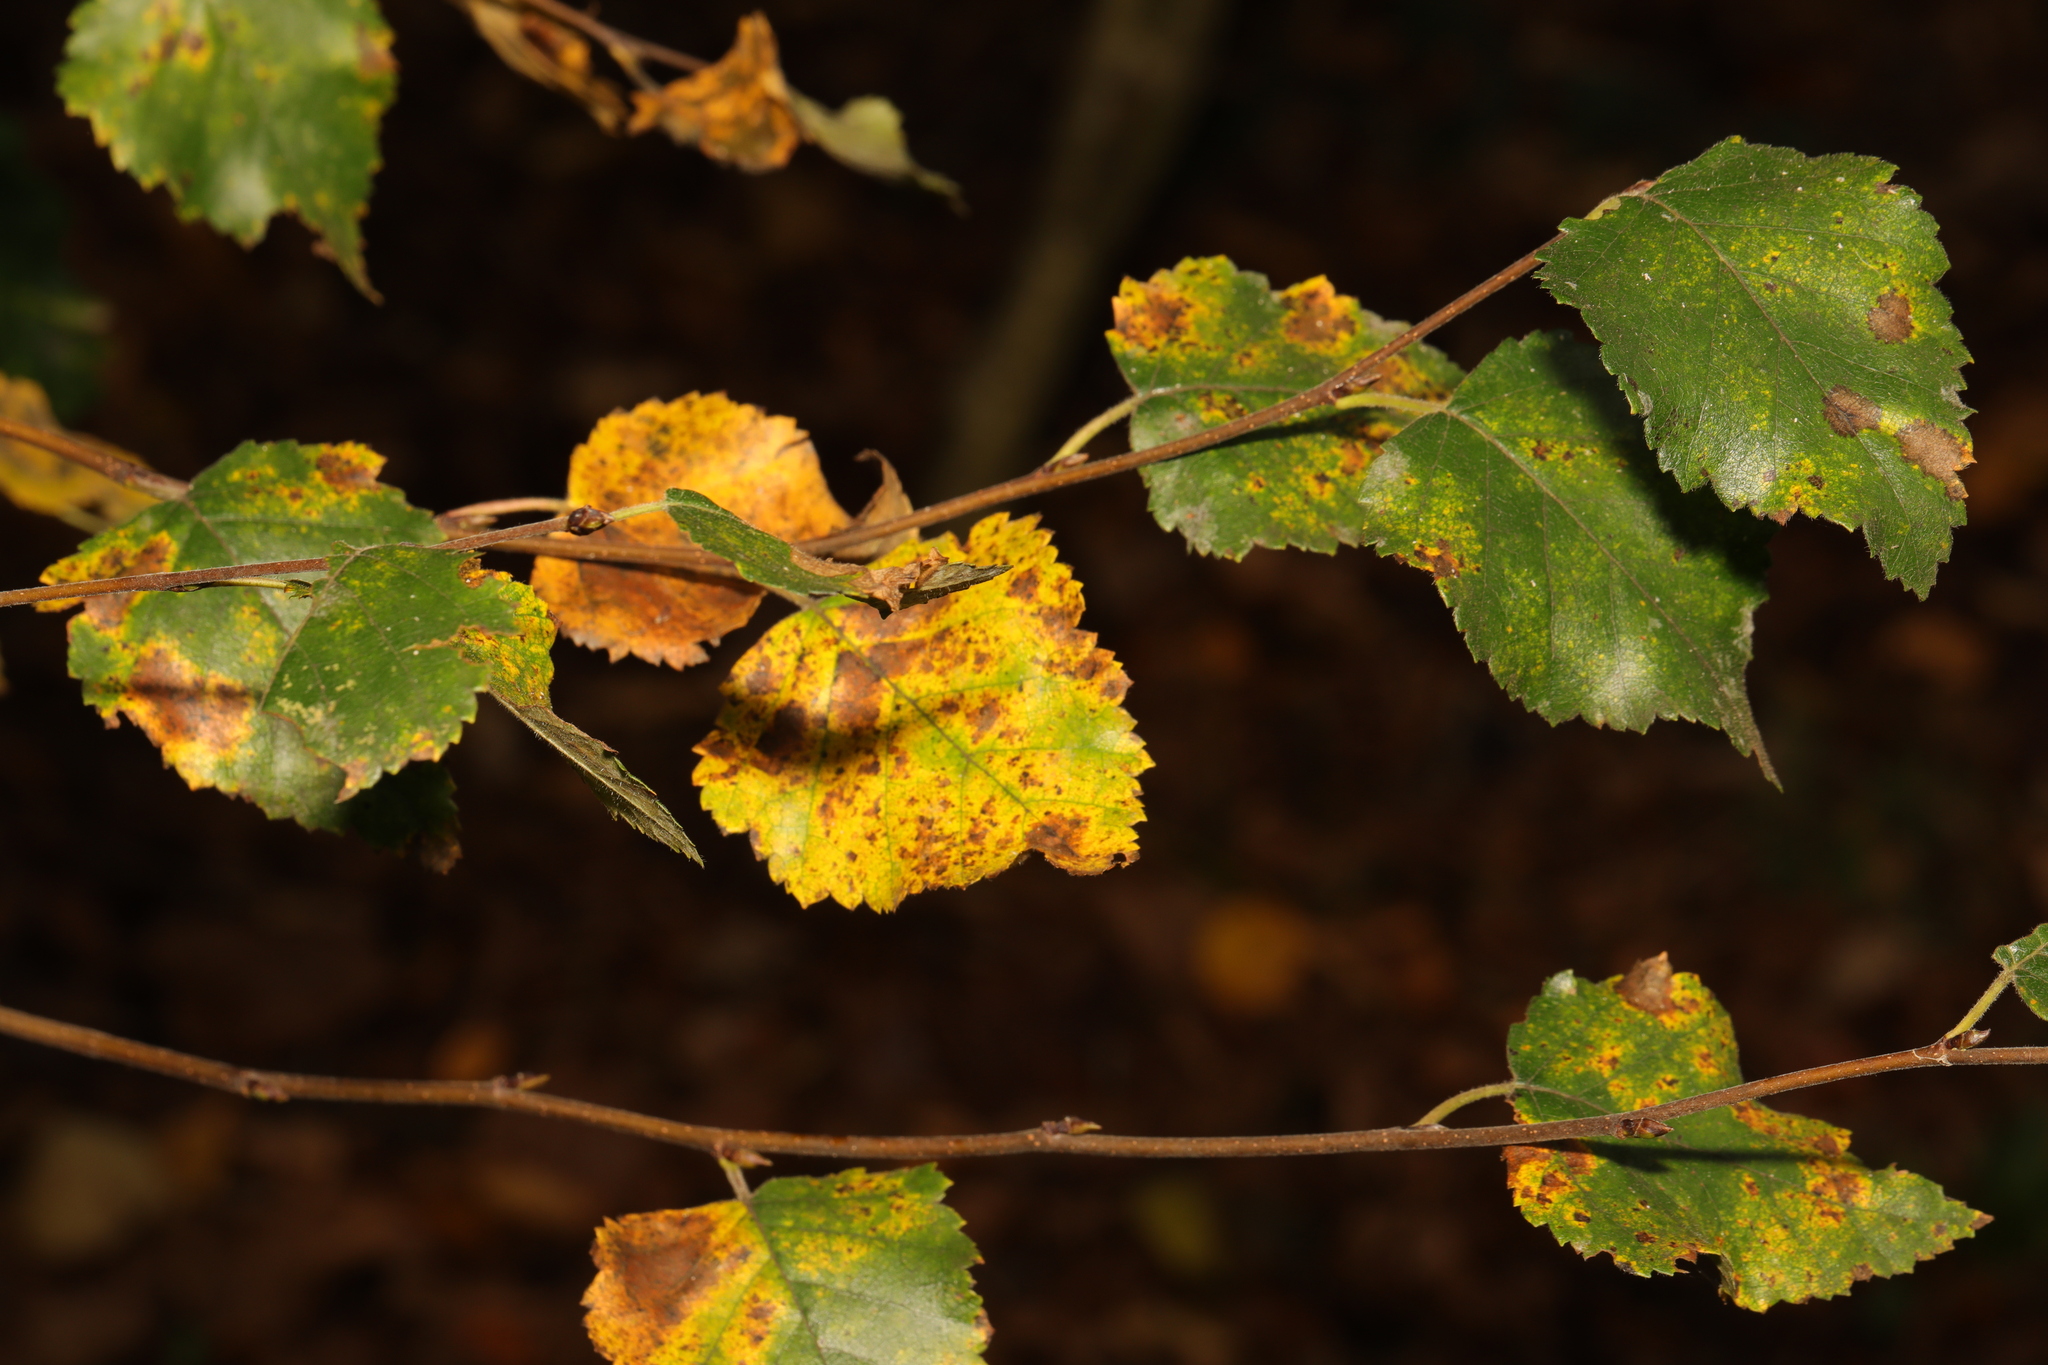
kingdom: Plantae
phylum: Tracheophyta
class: Magnoliopsida
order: Fagales
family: Betulaceae
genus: Betula
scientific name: Betula pubescens
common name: Downy birch
